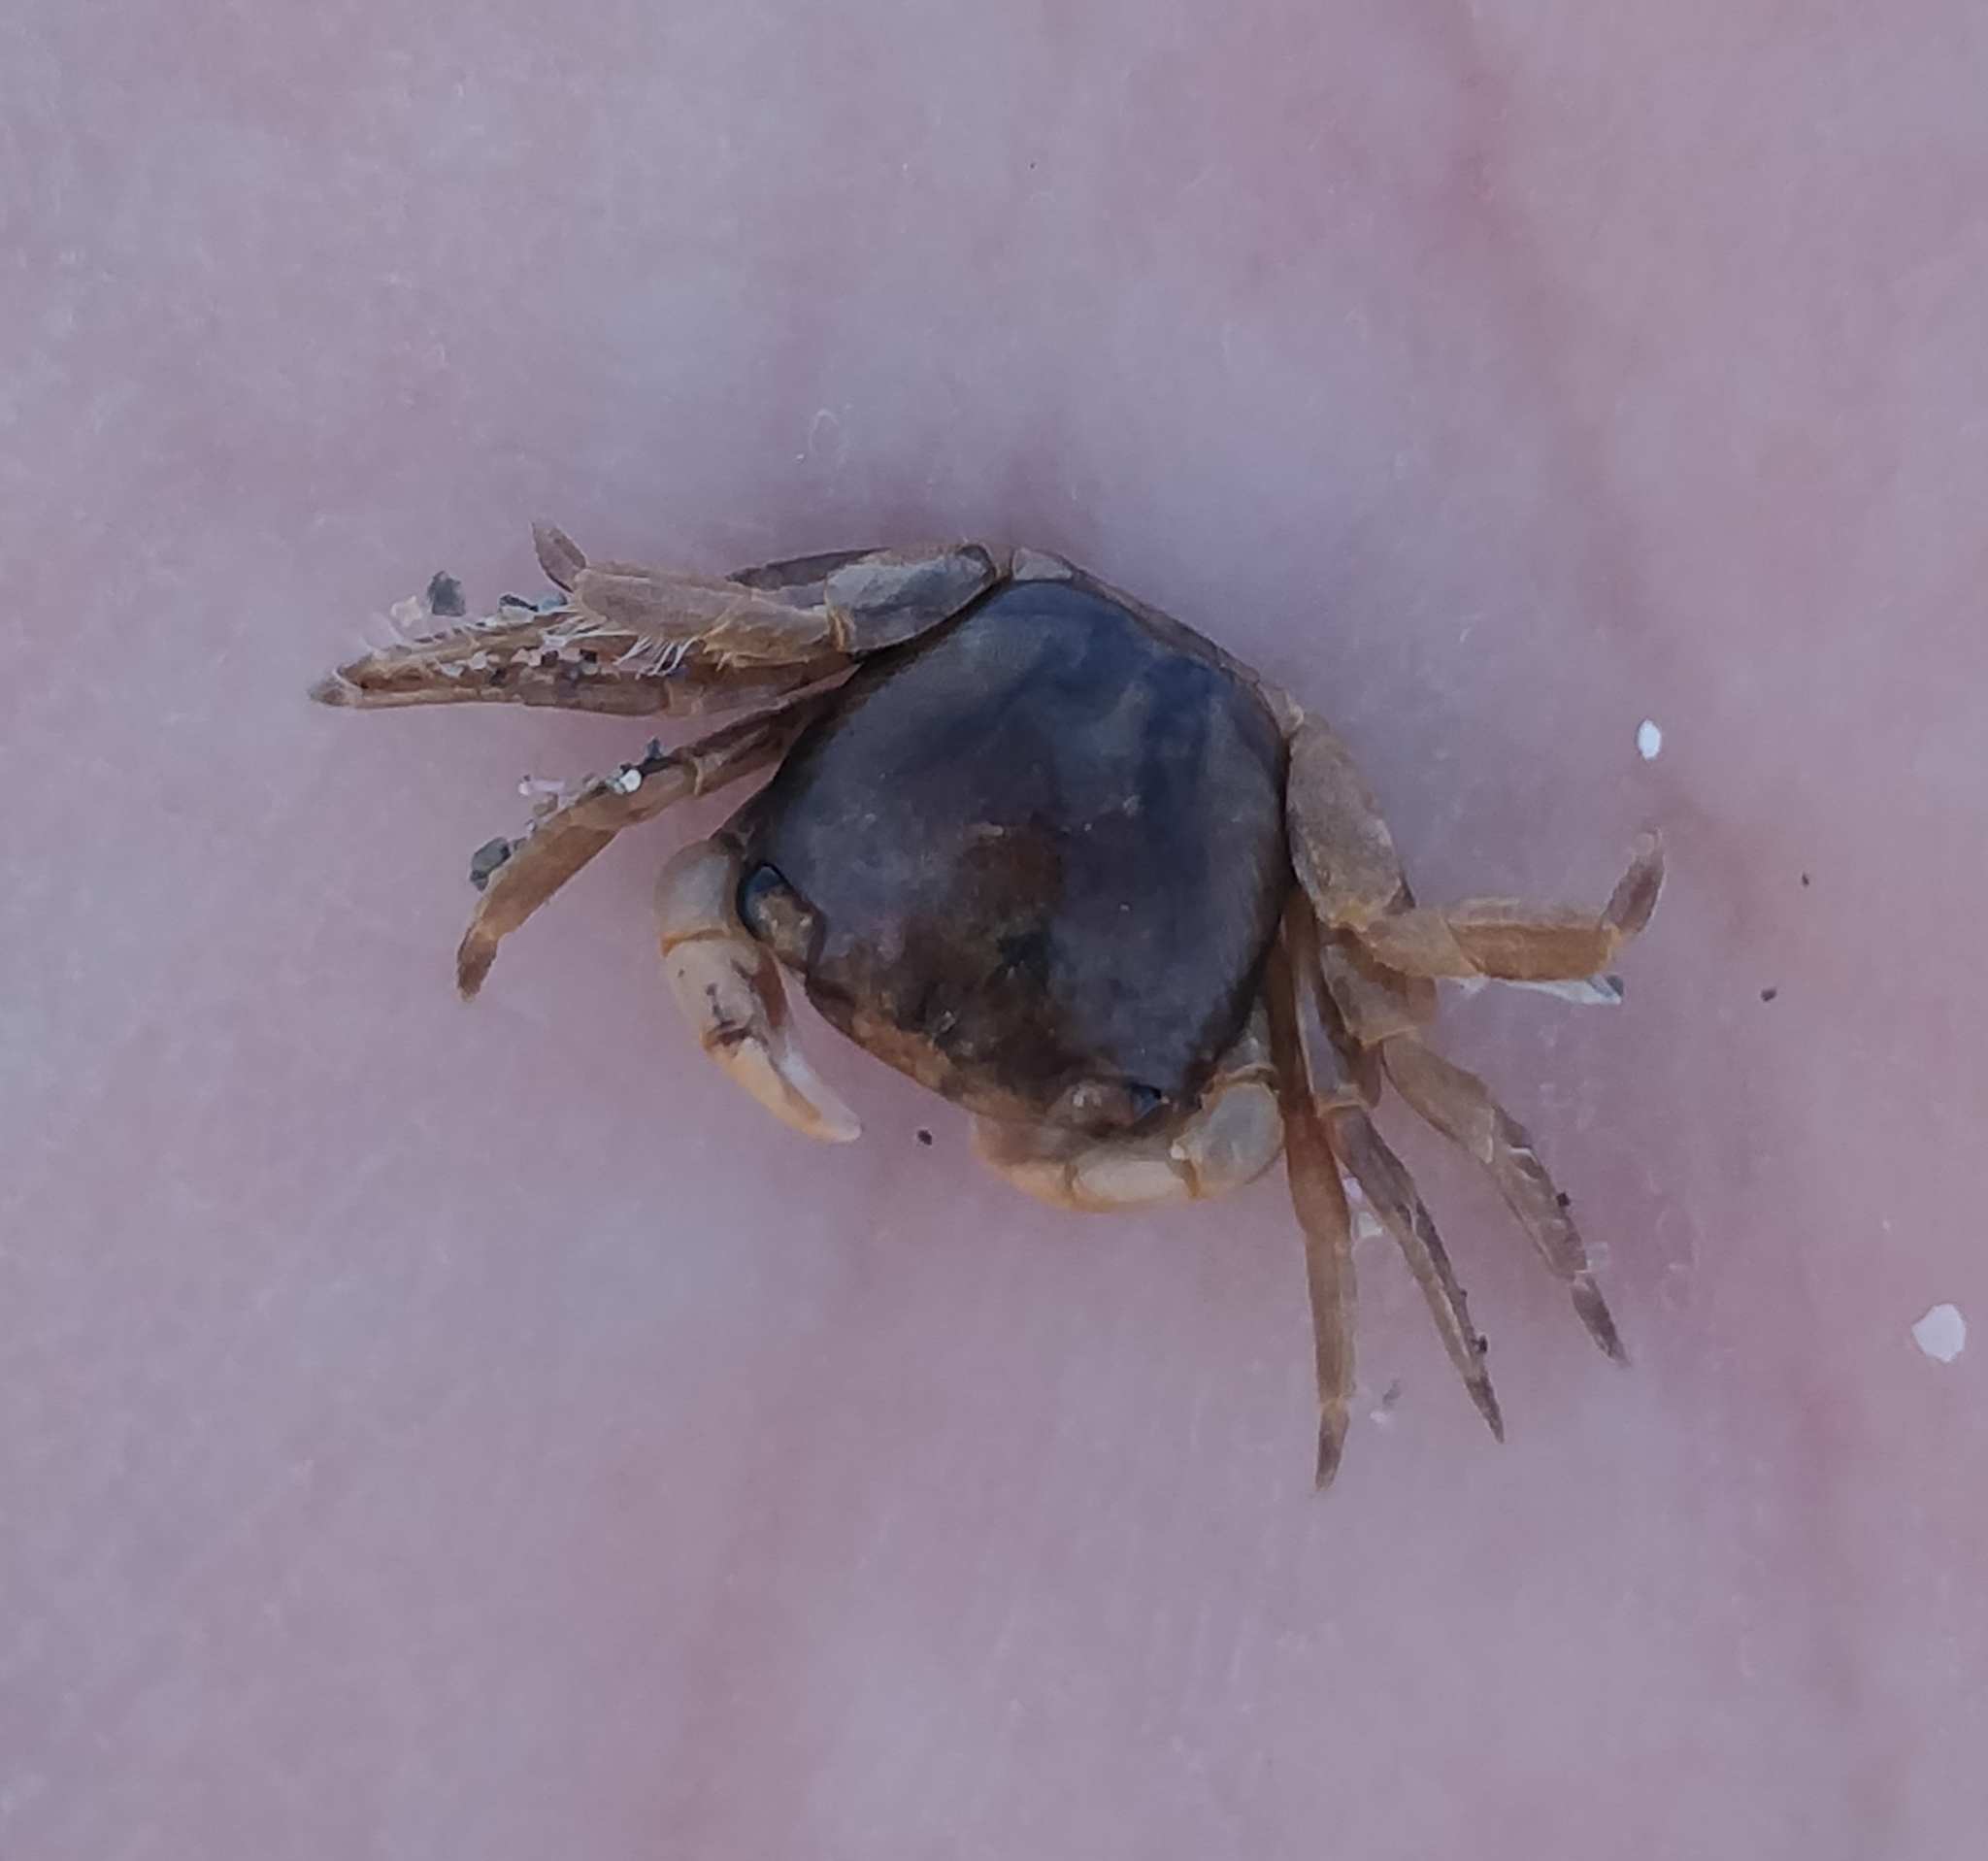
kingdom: Animalia
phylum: Arthropoda
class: Malacostraca
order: Decapoda
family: Grapsidae
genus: Planes
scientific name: Planes minutus
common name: Gulf weed crab
